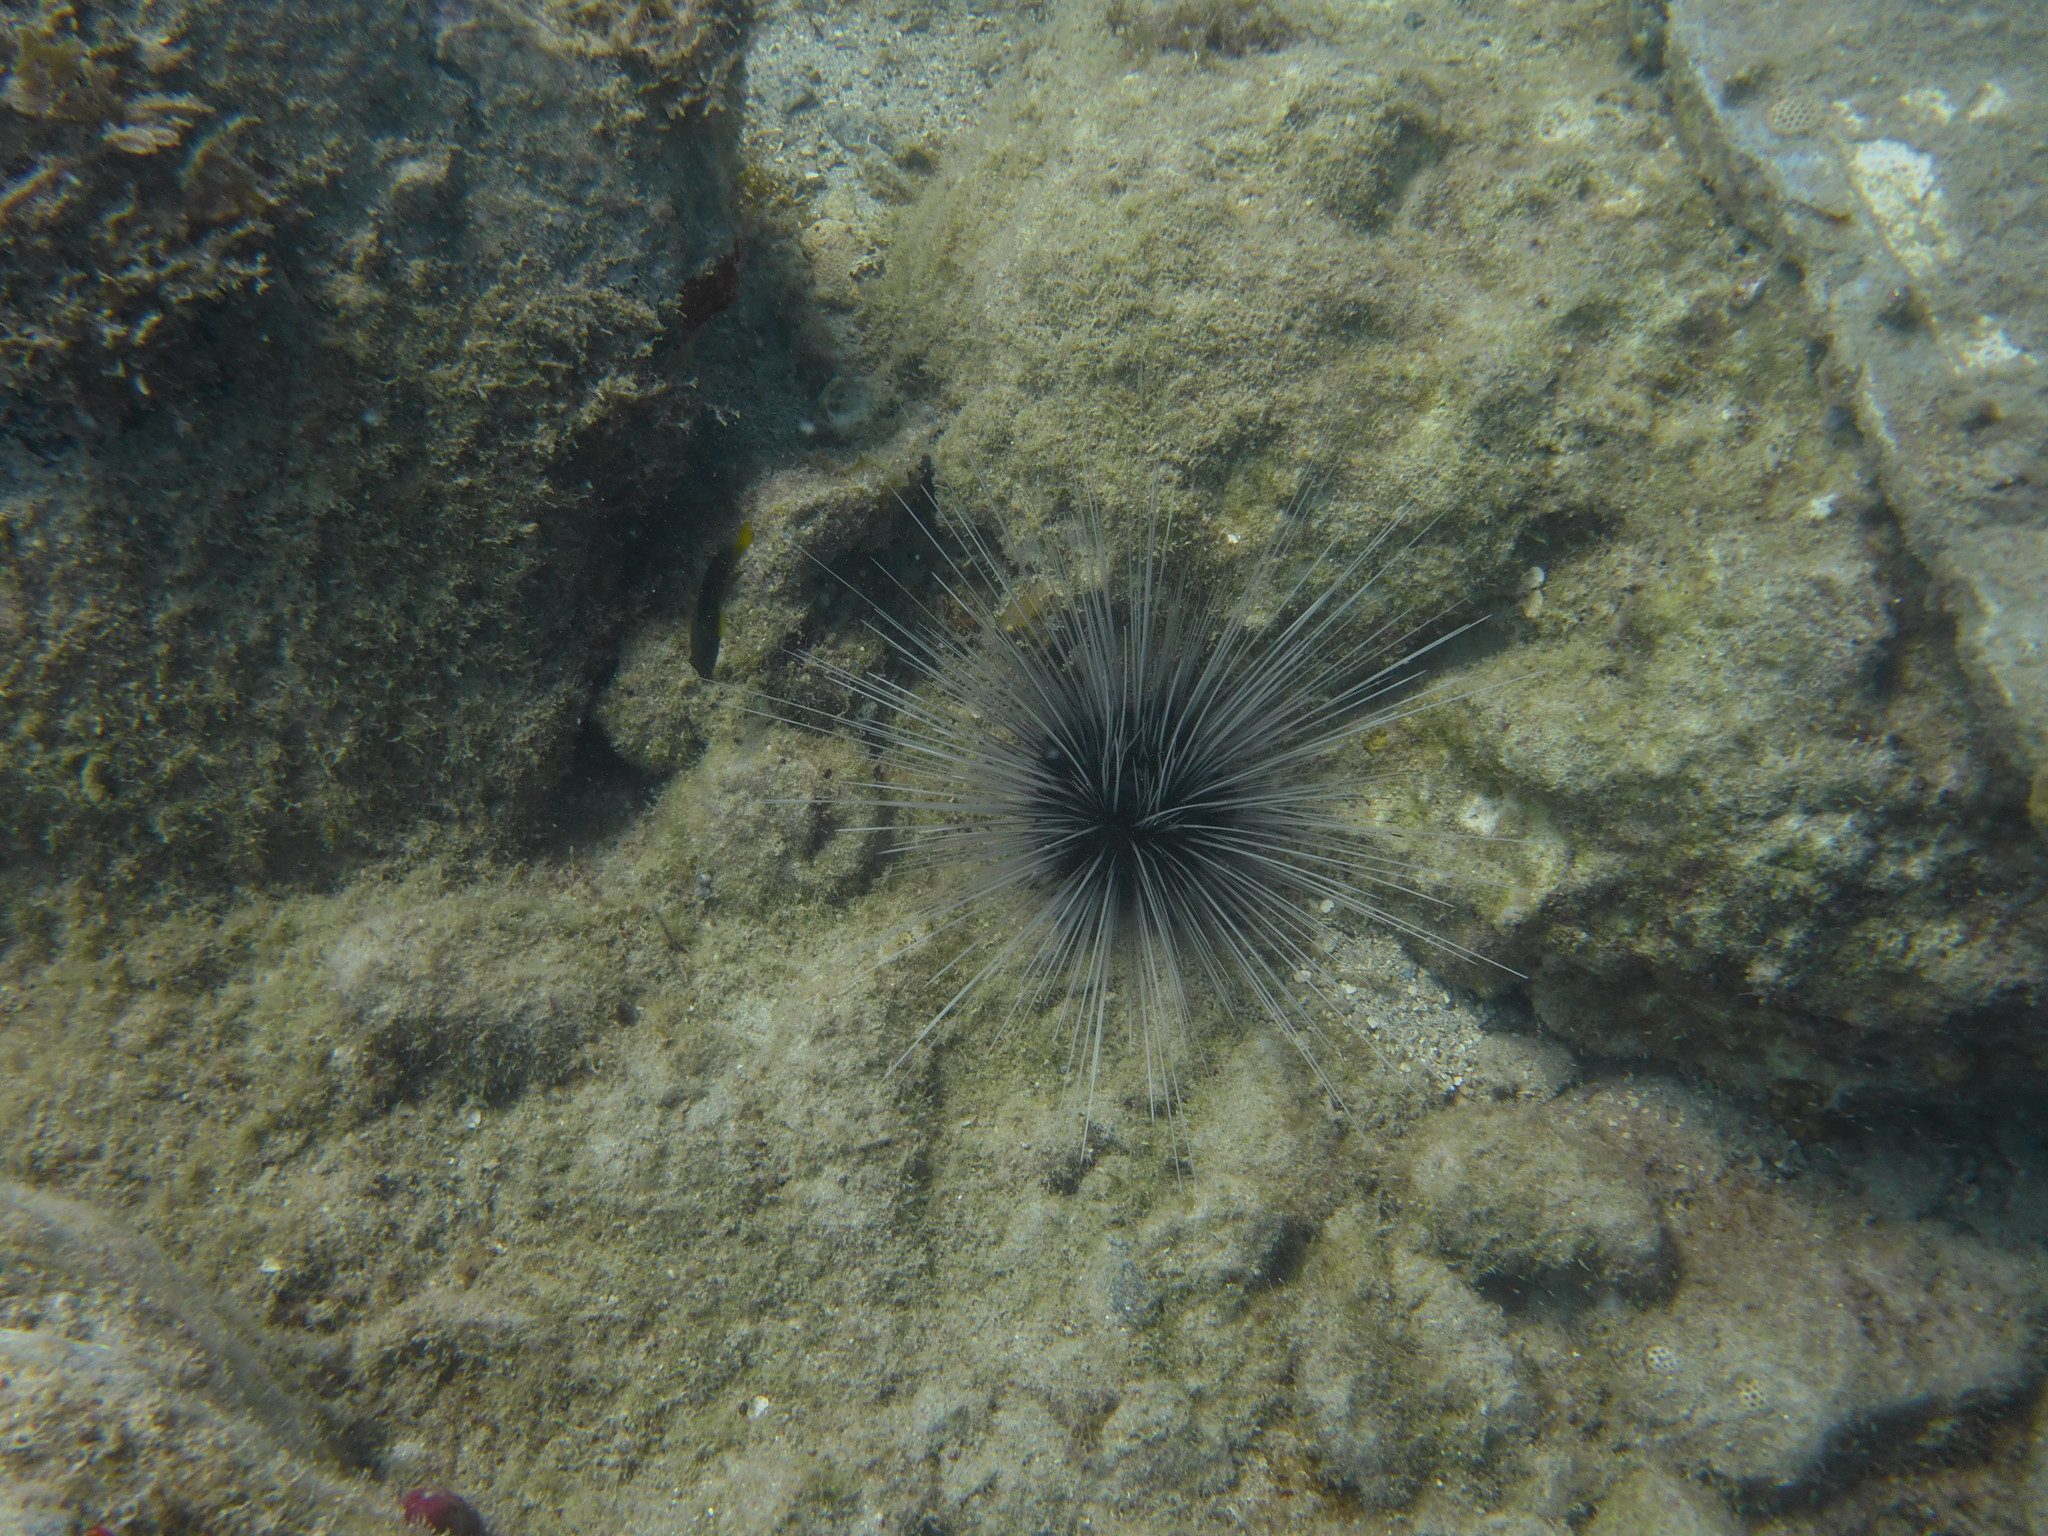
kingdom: Animalia
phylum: Echinodermata
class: Echinoidea
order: Diadematoida
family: Diadematidae
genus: Diadema
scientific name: Diadema antillarum
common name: Spiny urchin
